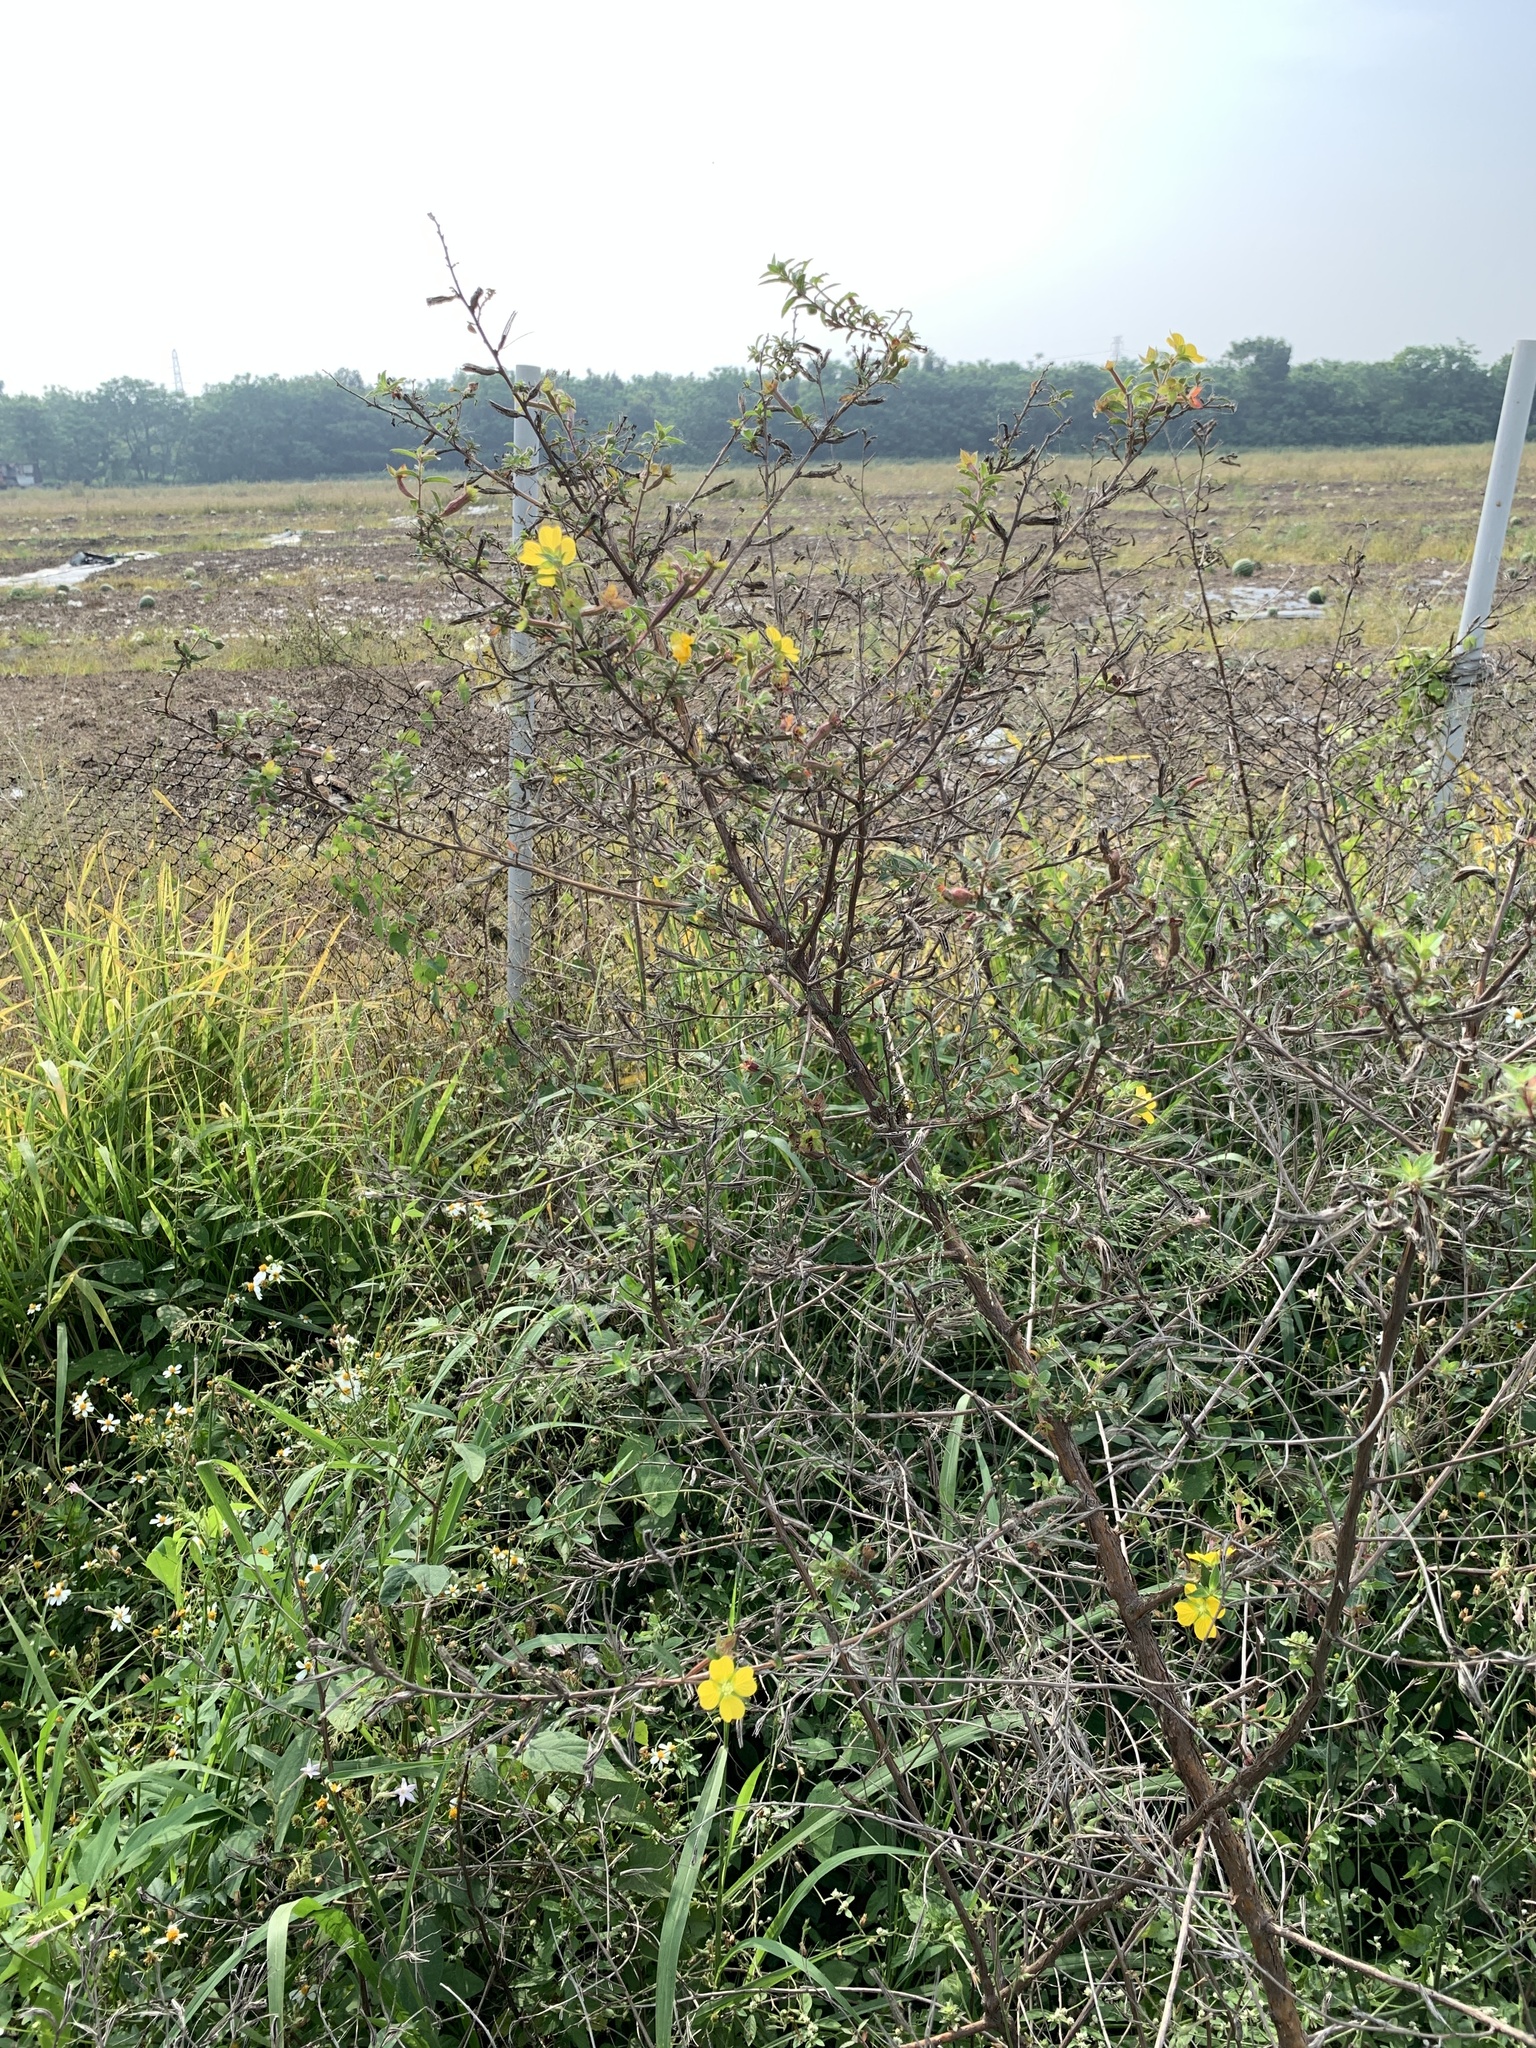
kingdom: Plantae
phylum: Tracheophyta
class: Magnoliopsida
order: Myrtales
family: Onagraceae
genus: Ludwigia
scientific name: Ludwigia octovalvis
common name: Water-primrose
